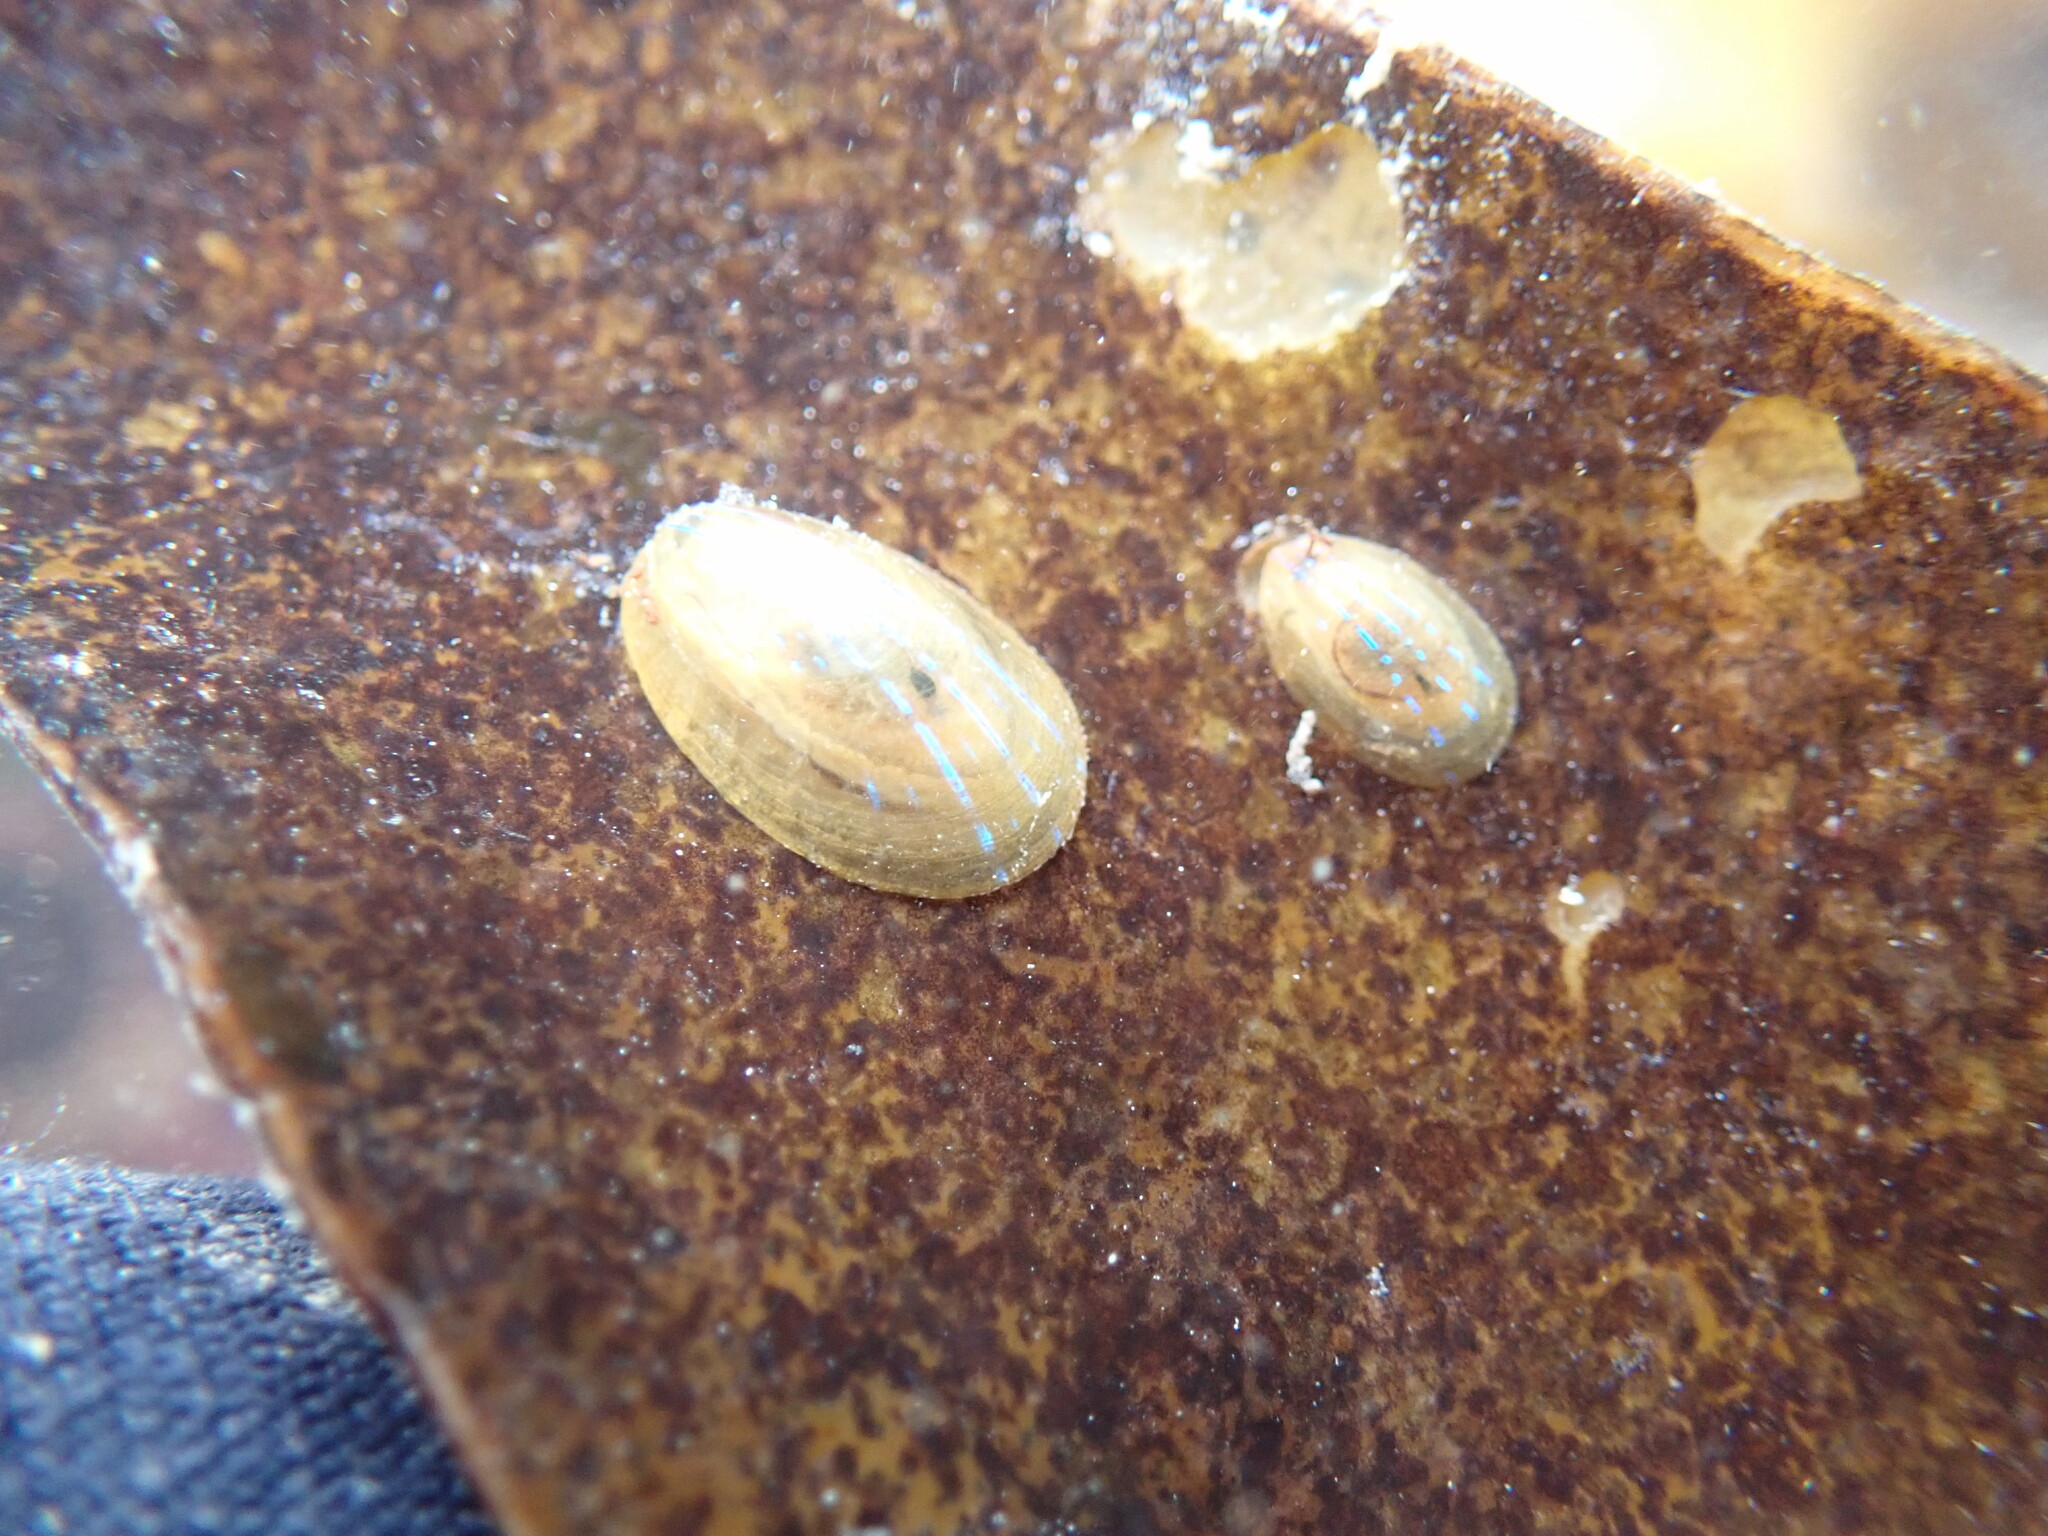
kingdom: Animalia
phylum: Mollusca
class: Gastropoda
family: Patellidae
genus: Patella
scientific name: Patella pellucida
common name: Blue-rayed limpet
